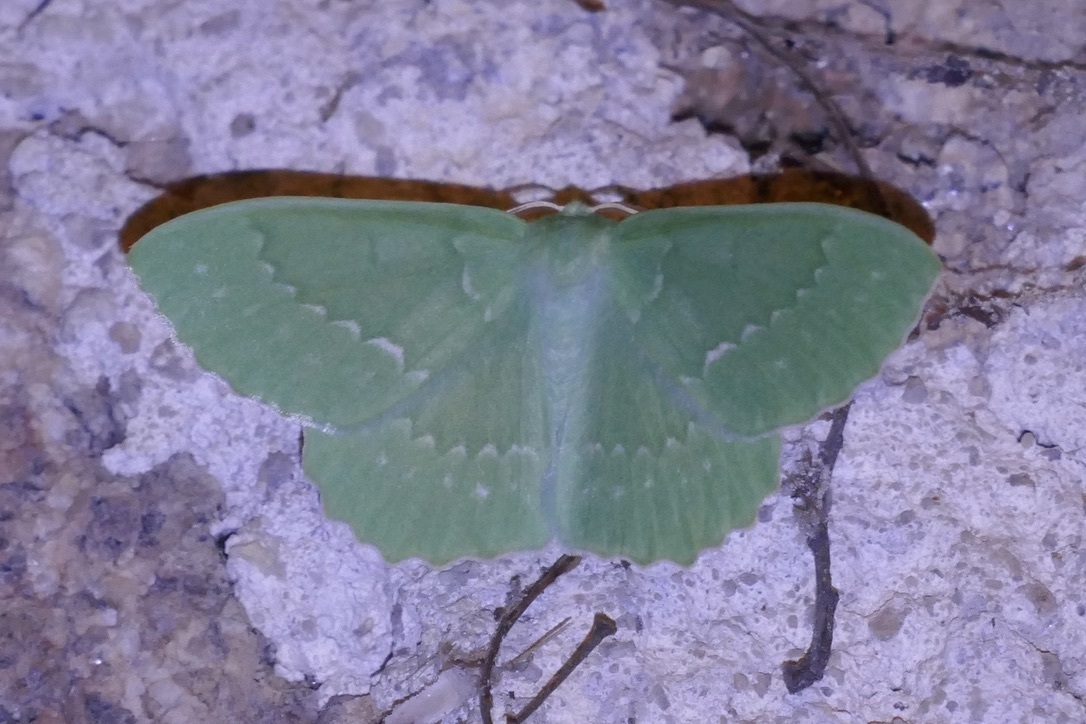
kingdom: Animalia
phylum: Arthropoda
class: Insecta
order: Lepidoptera
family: Geometridae
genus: Geometra
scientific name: Geometra papilionaria
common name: Large emerald
